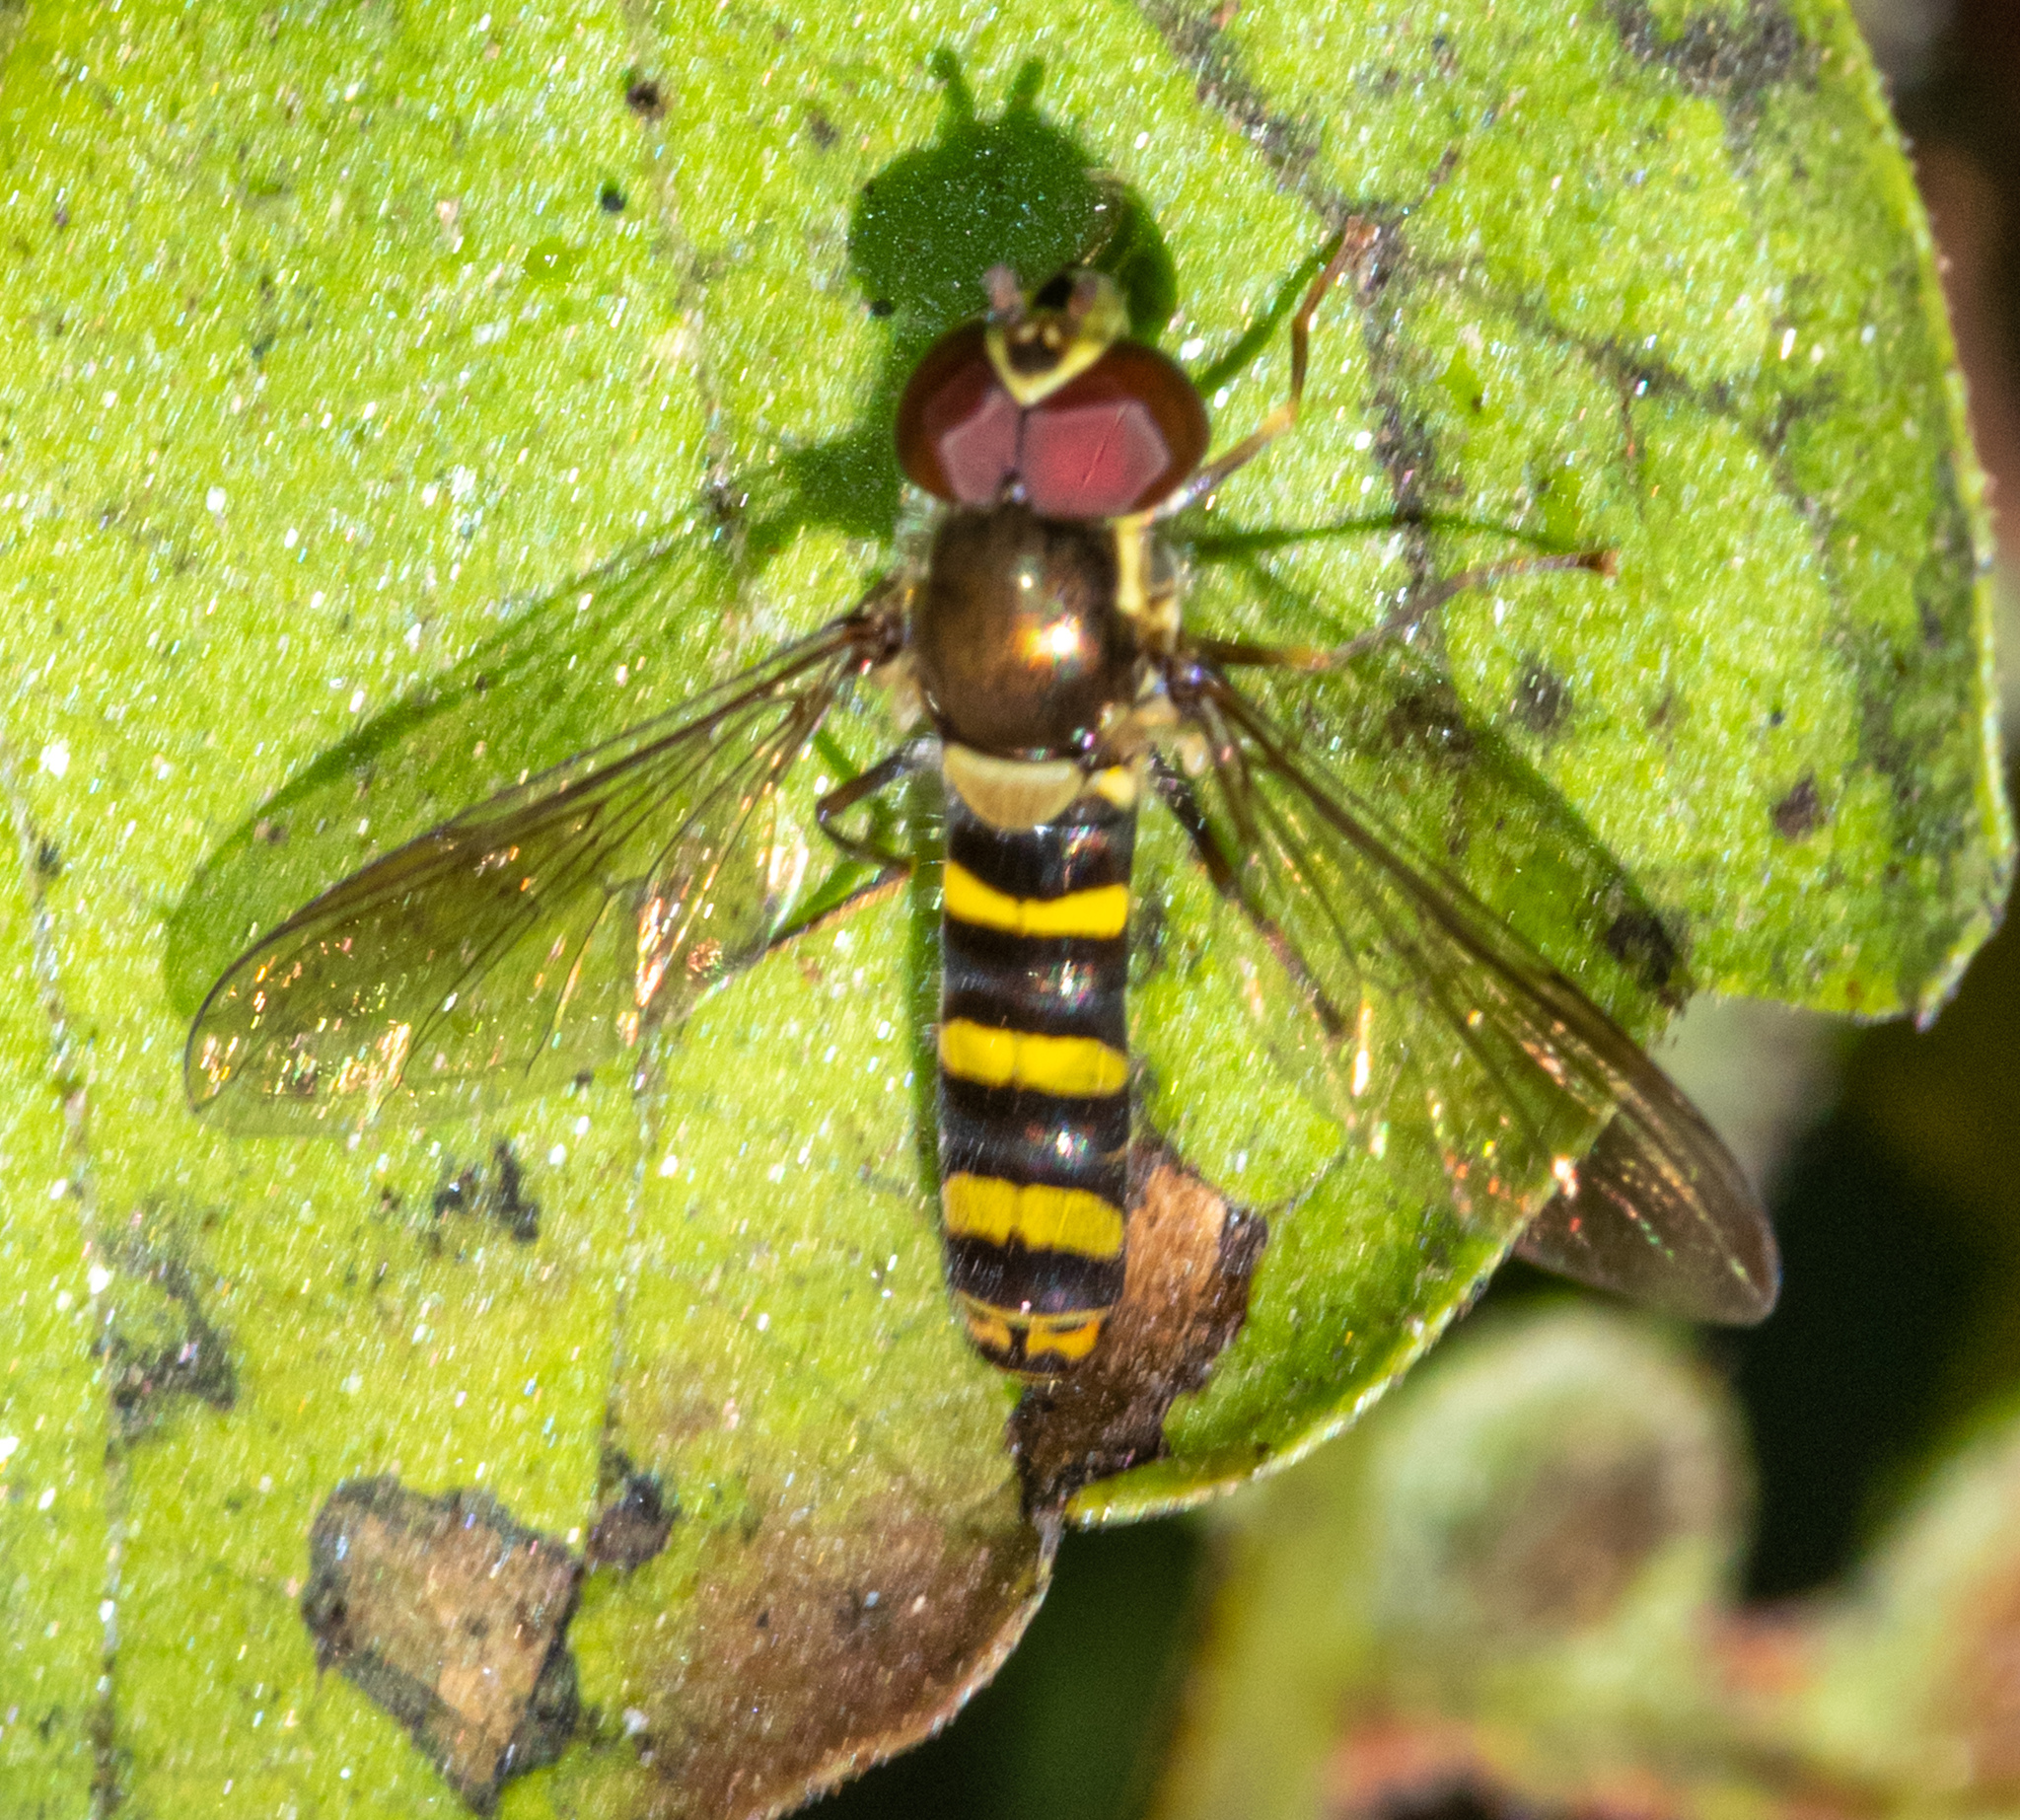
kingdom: Animalia
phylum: Arthropoda
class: Insecta
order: Diptera
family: Syrphidae
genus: Fazia
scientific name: Fazia micrura
